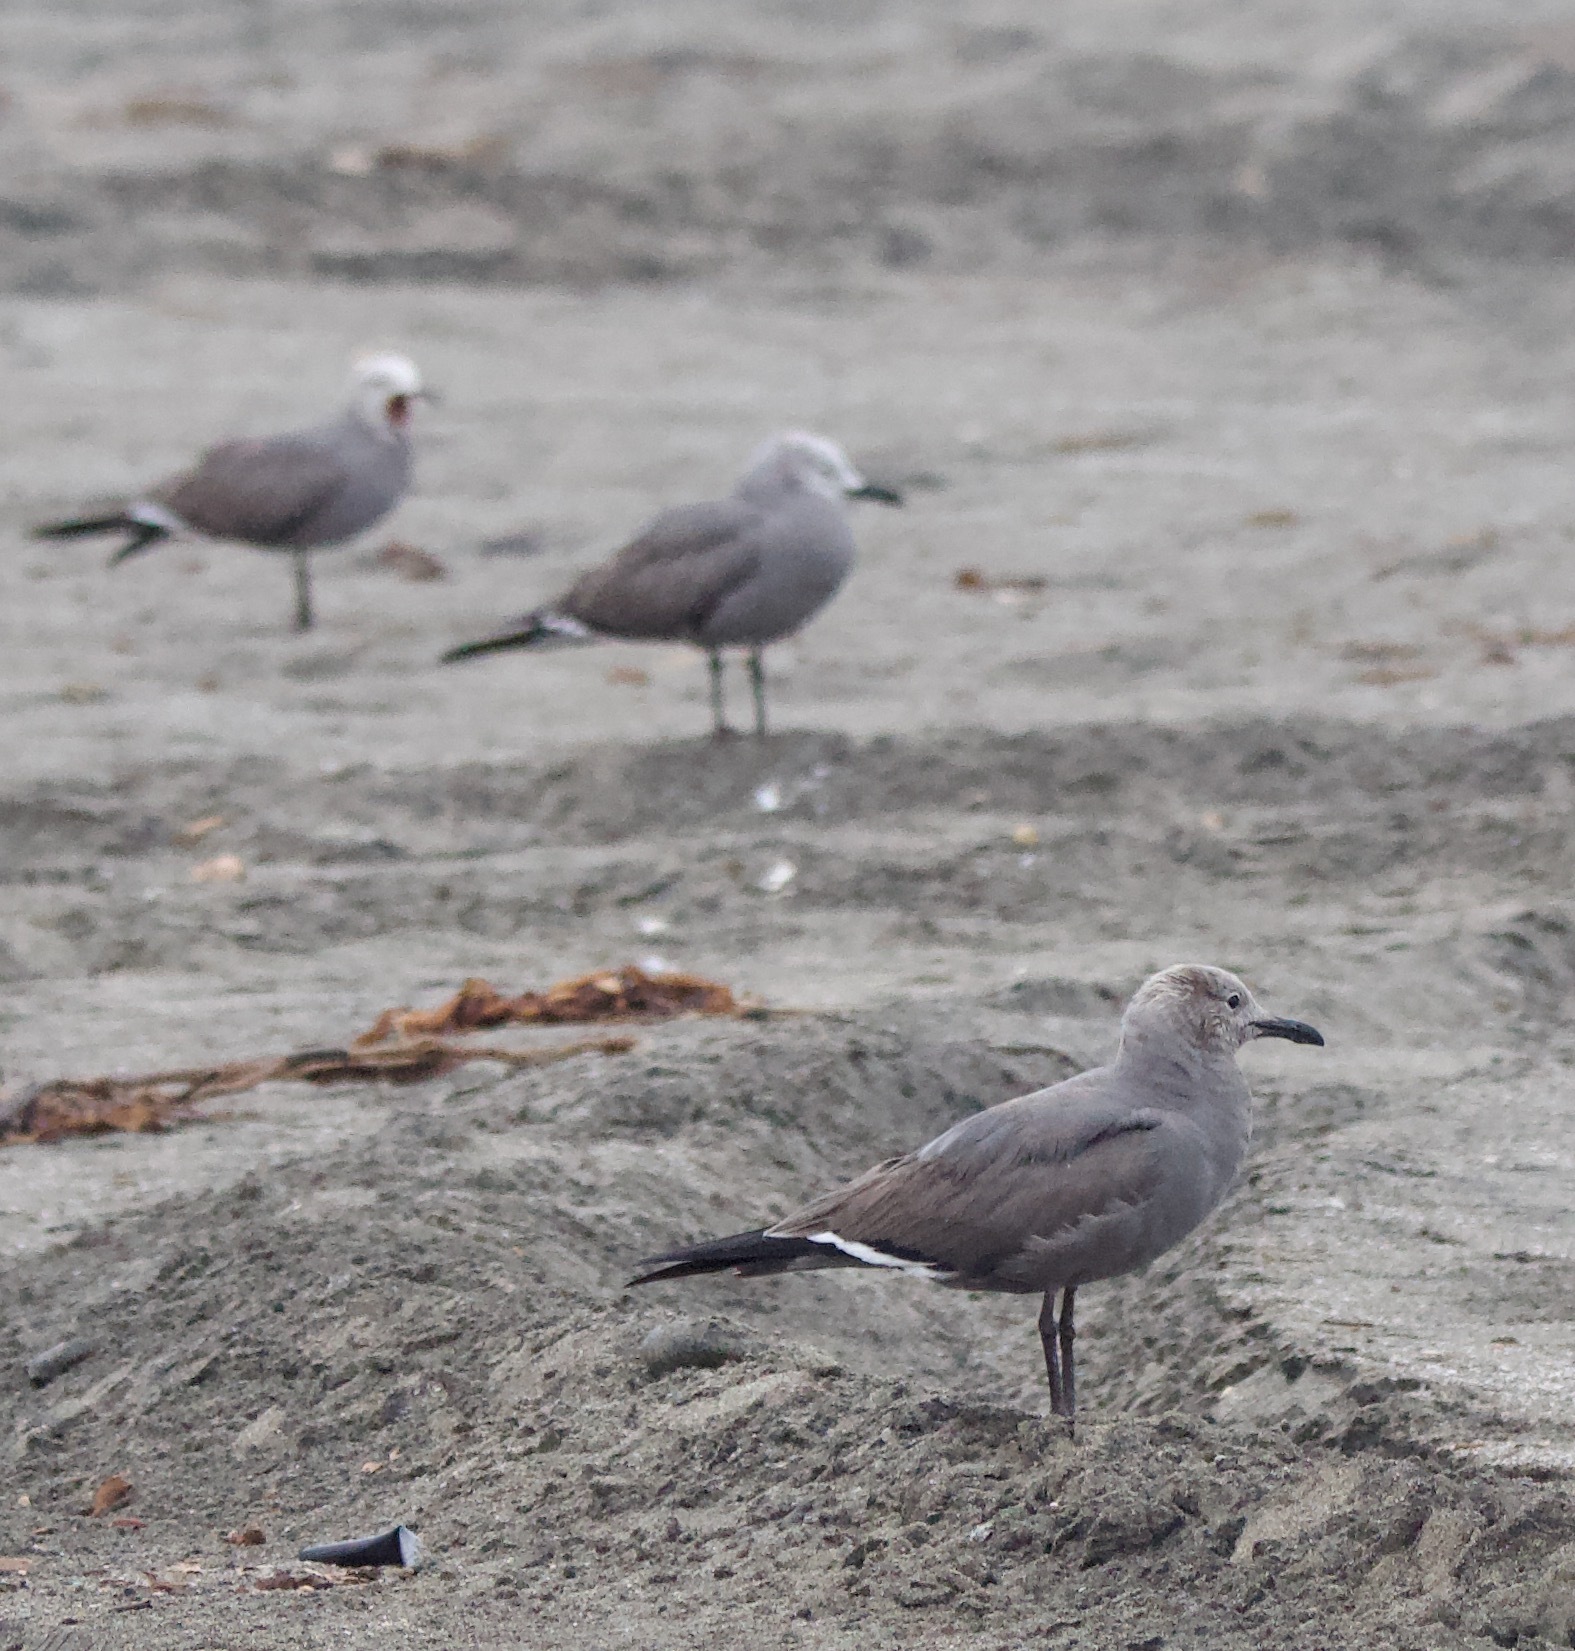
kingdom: Animalia
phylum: Chordata
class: Aves
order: Charadriiformes
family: Laridae
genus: Leucophaeus
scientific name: Leucophaeus modestus
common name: Gray gull
